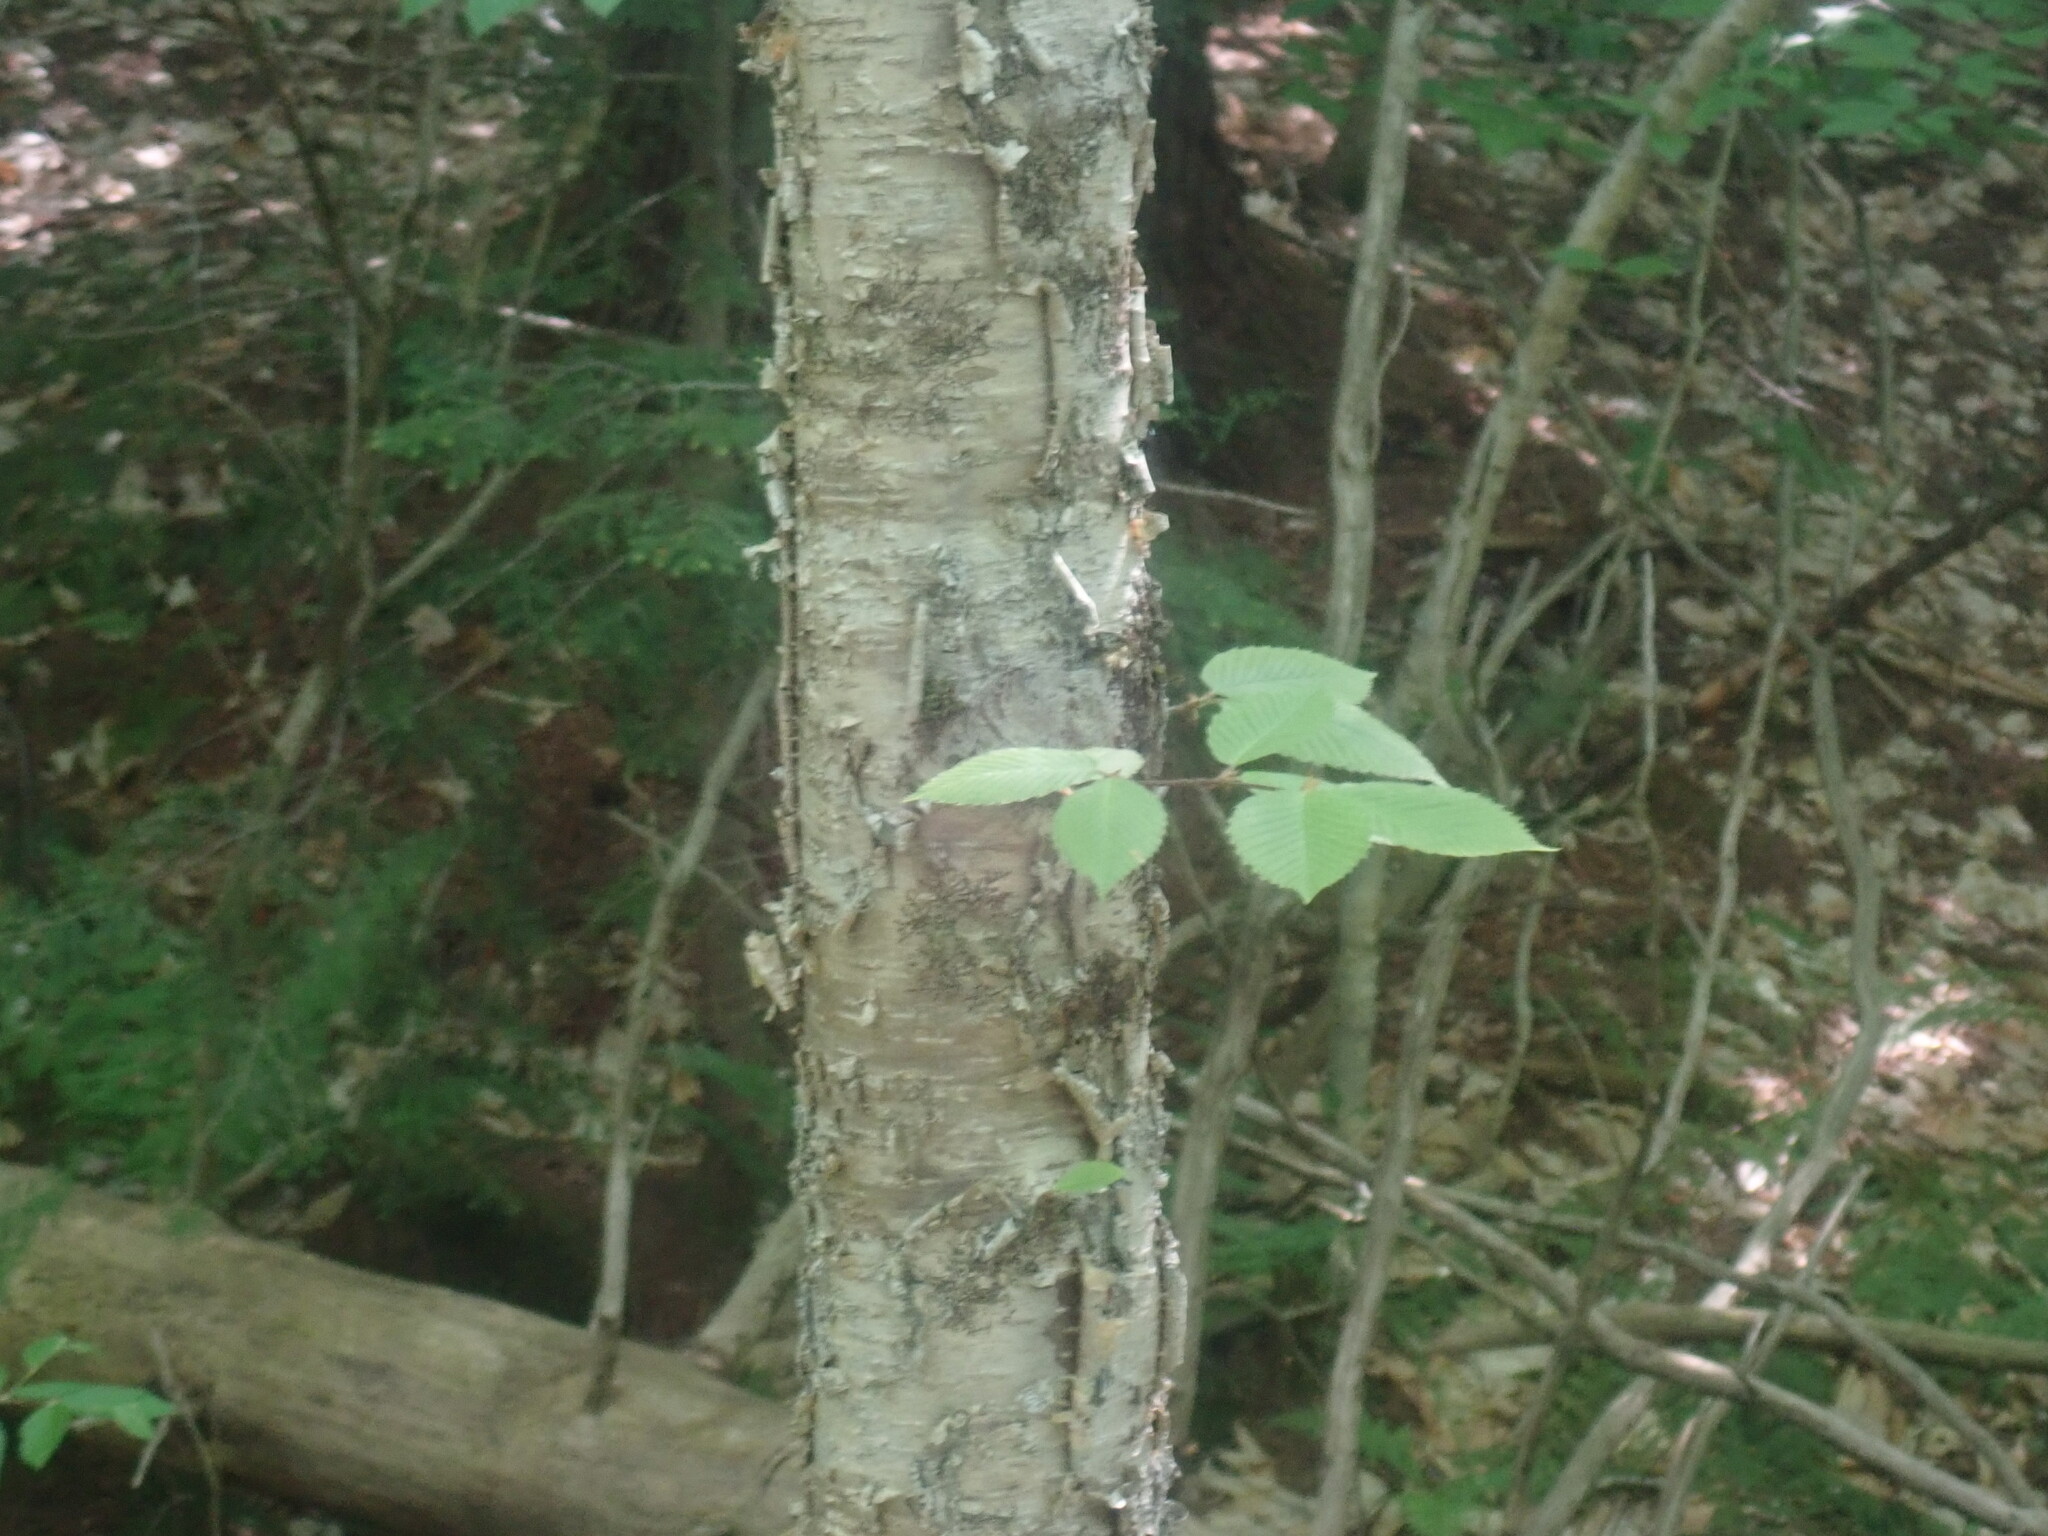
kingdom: Plantae
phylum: Tracheophyta
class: Magnoliopsida
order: Fagales
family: Betulaceae
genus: Betula
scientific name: Betula alleghaniensis
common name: Yellow birch
